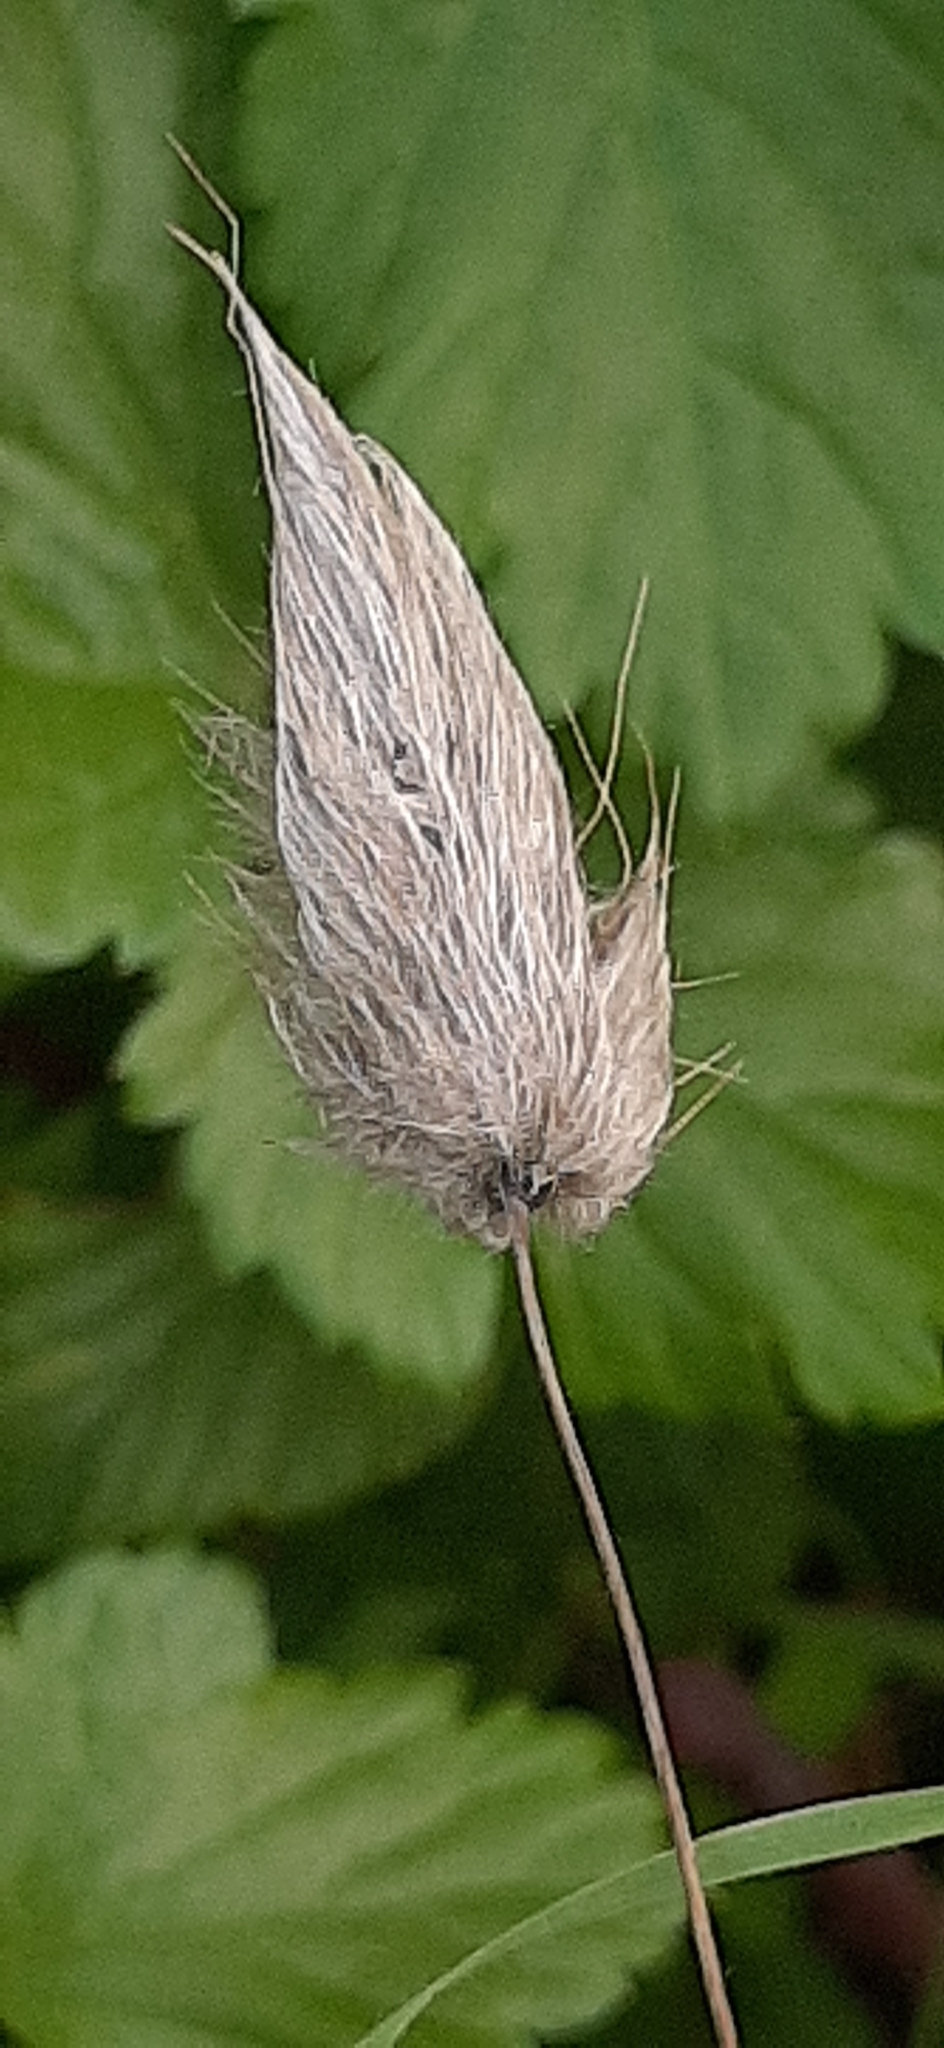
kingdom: Plantae
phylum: Tracheophyta
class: Liliopsida
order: Poales
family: Poaceae
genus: Lagurus
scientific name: Lagurus ovatus
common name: Hare's-tail
